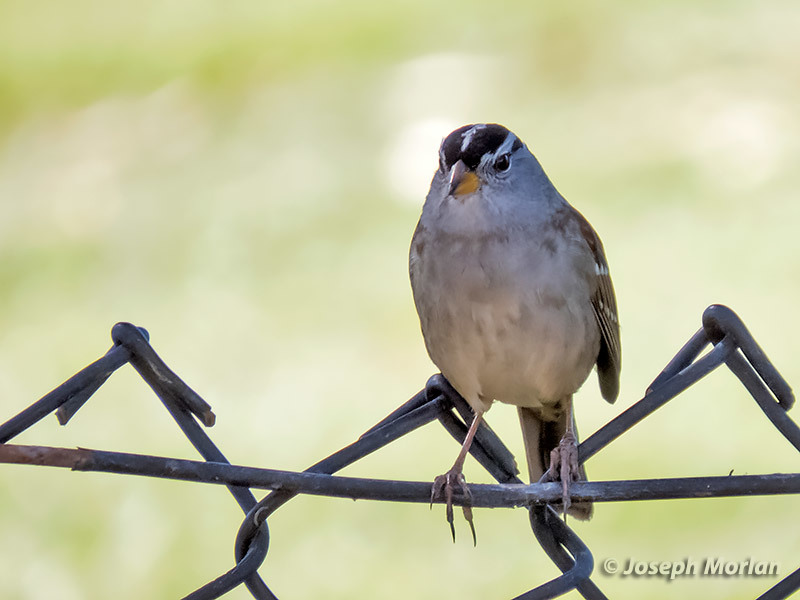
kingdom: Animalia
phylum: Chordata
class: Aves
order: Passeriformes
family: Passerellidae
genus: Zonotrichia
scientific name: Zonotrichia leucophrys
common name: White-crowned sparrow
